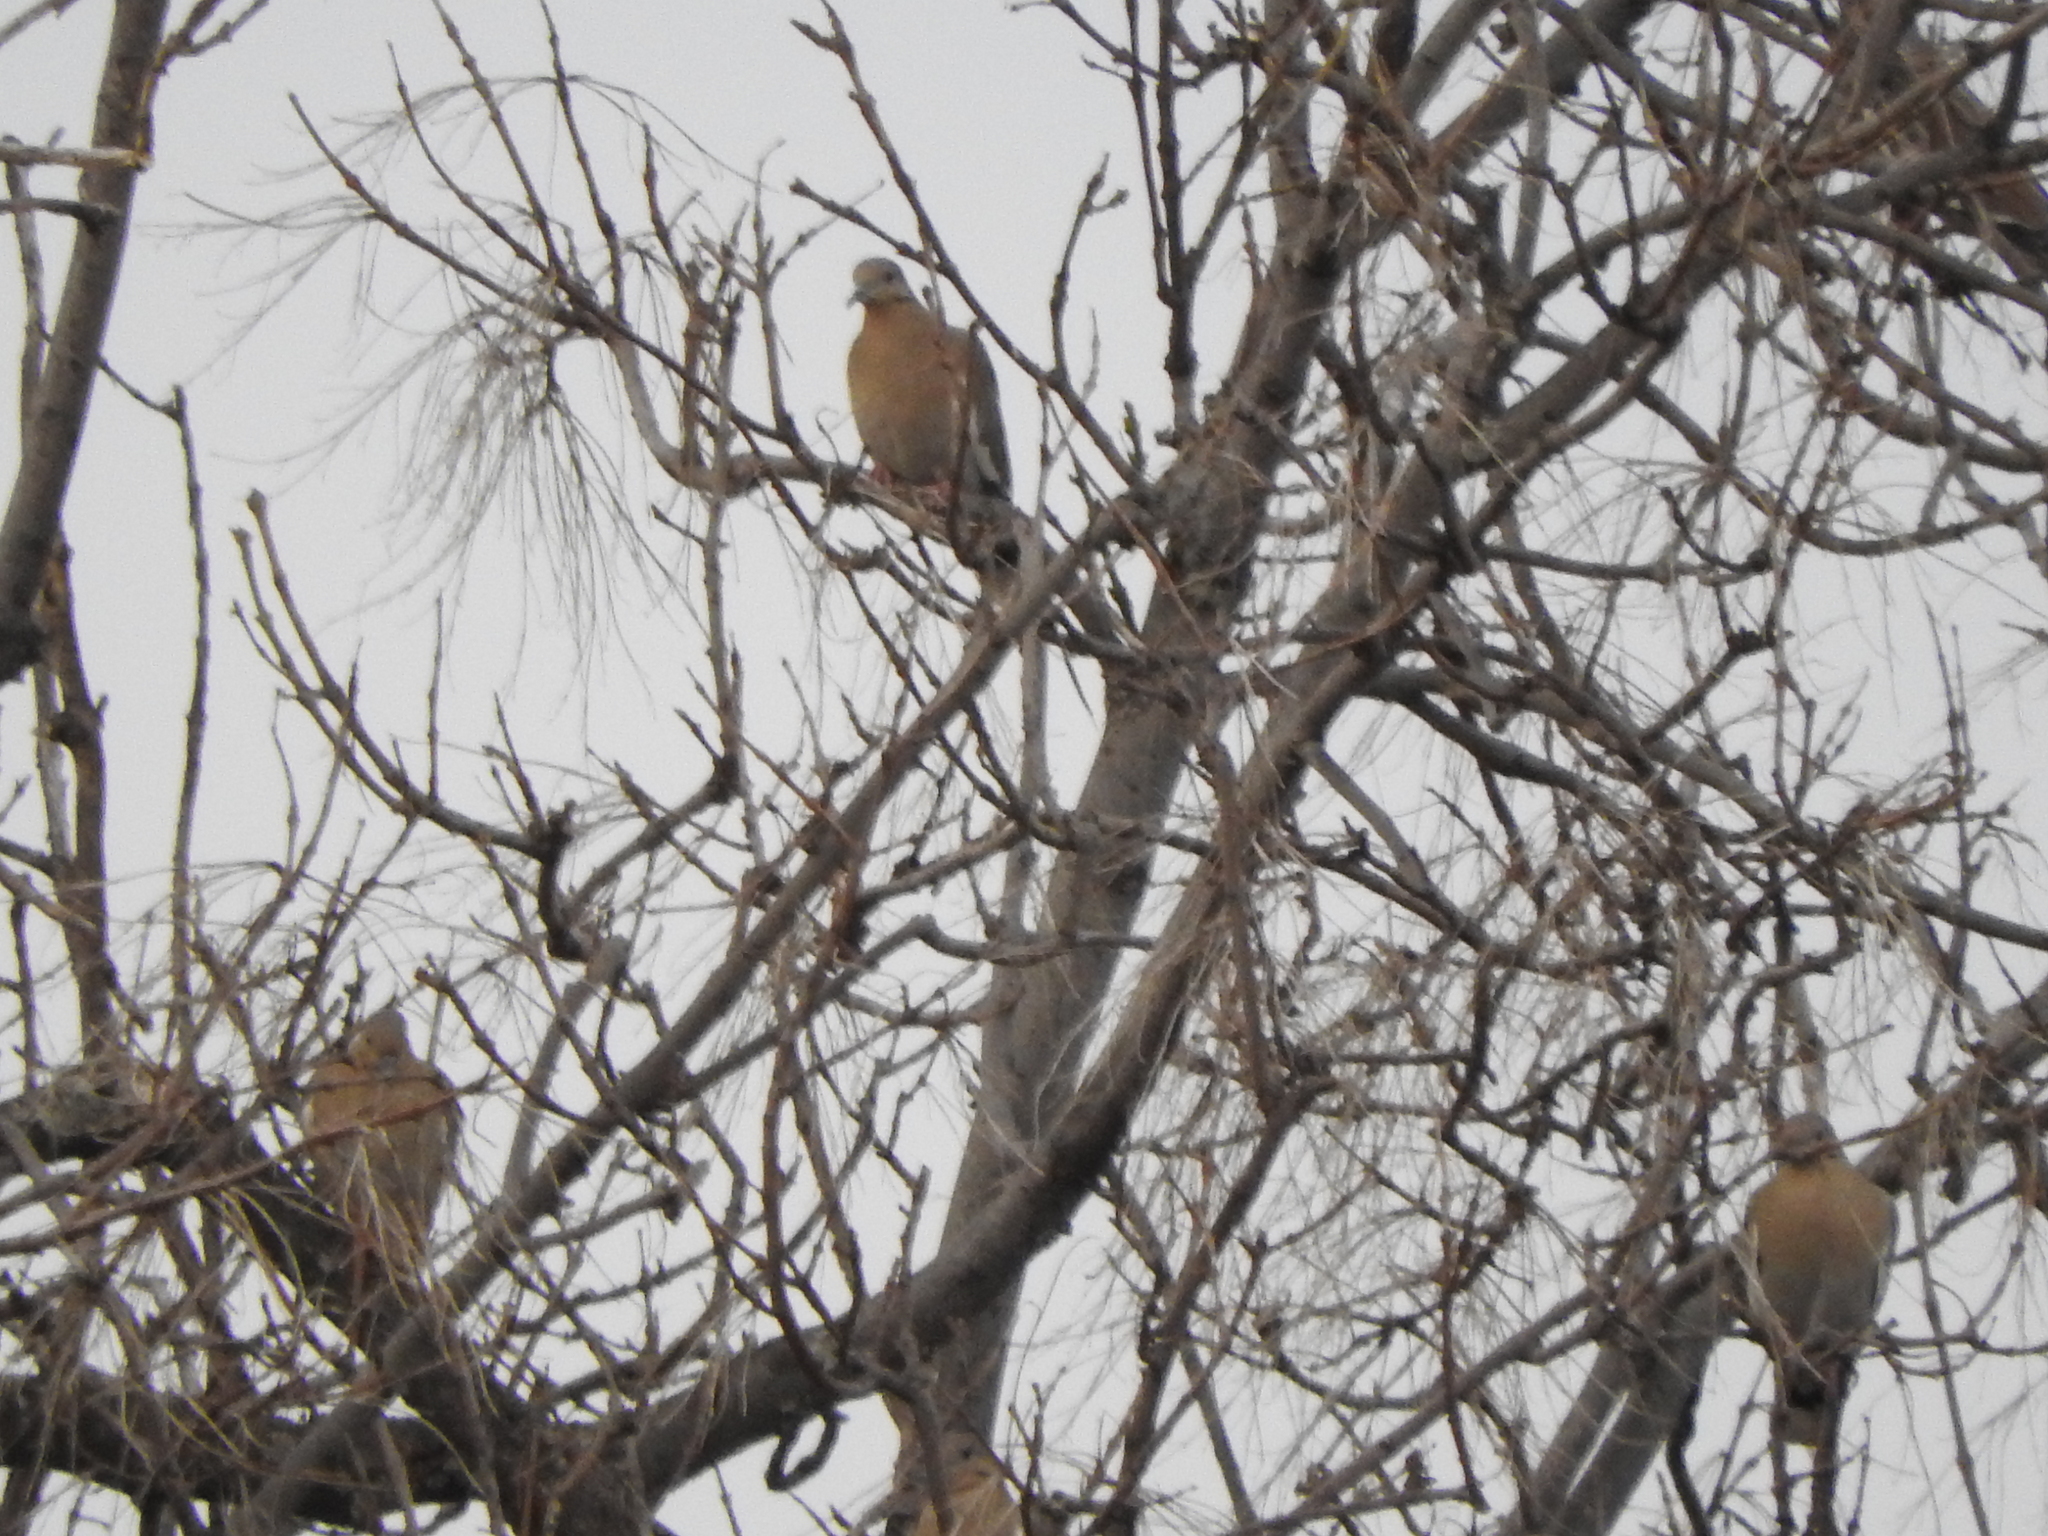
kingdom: Animalia
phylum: Chordata
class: Aves
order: Columbiformes
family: Columbidae
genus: Zenaida
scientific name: Zenaida asiatica
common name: White-winged dove
